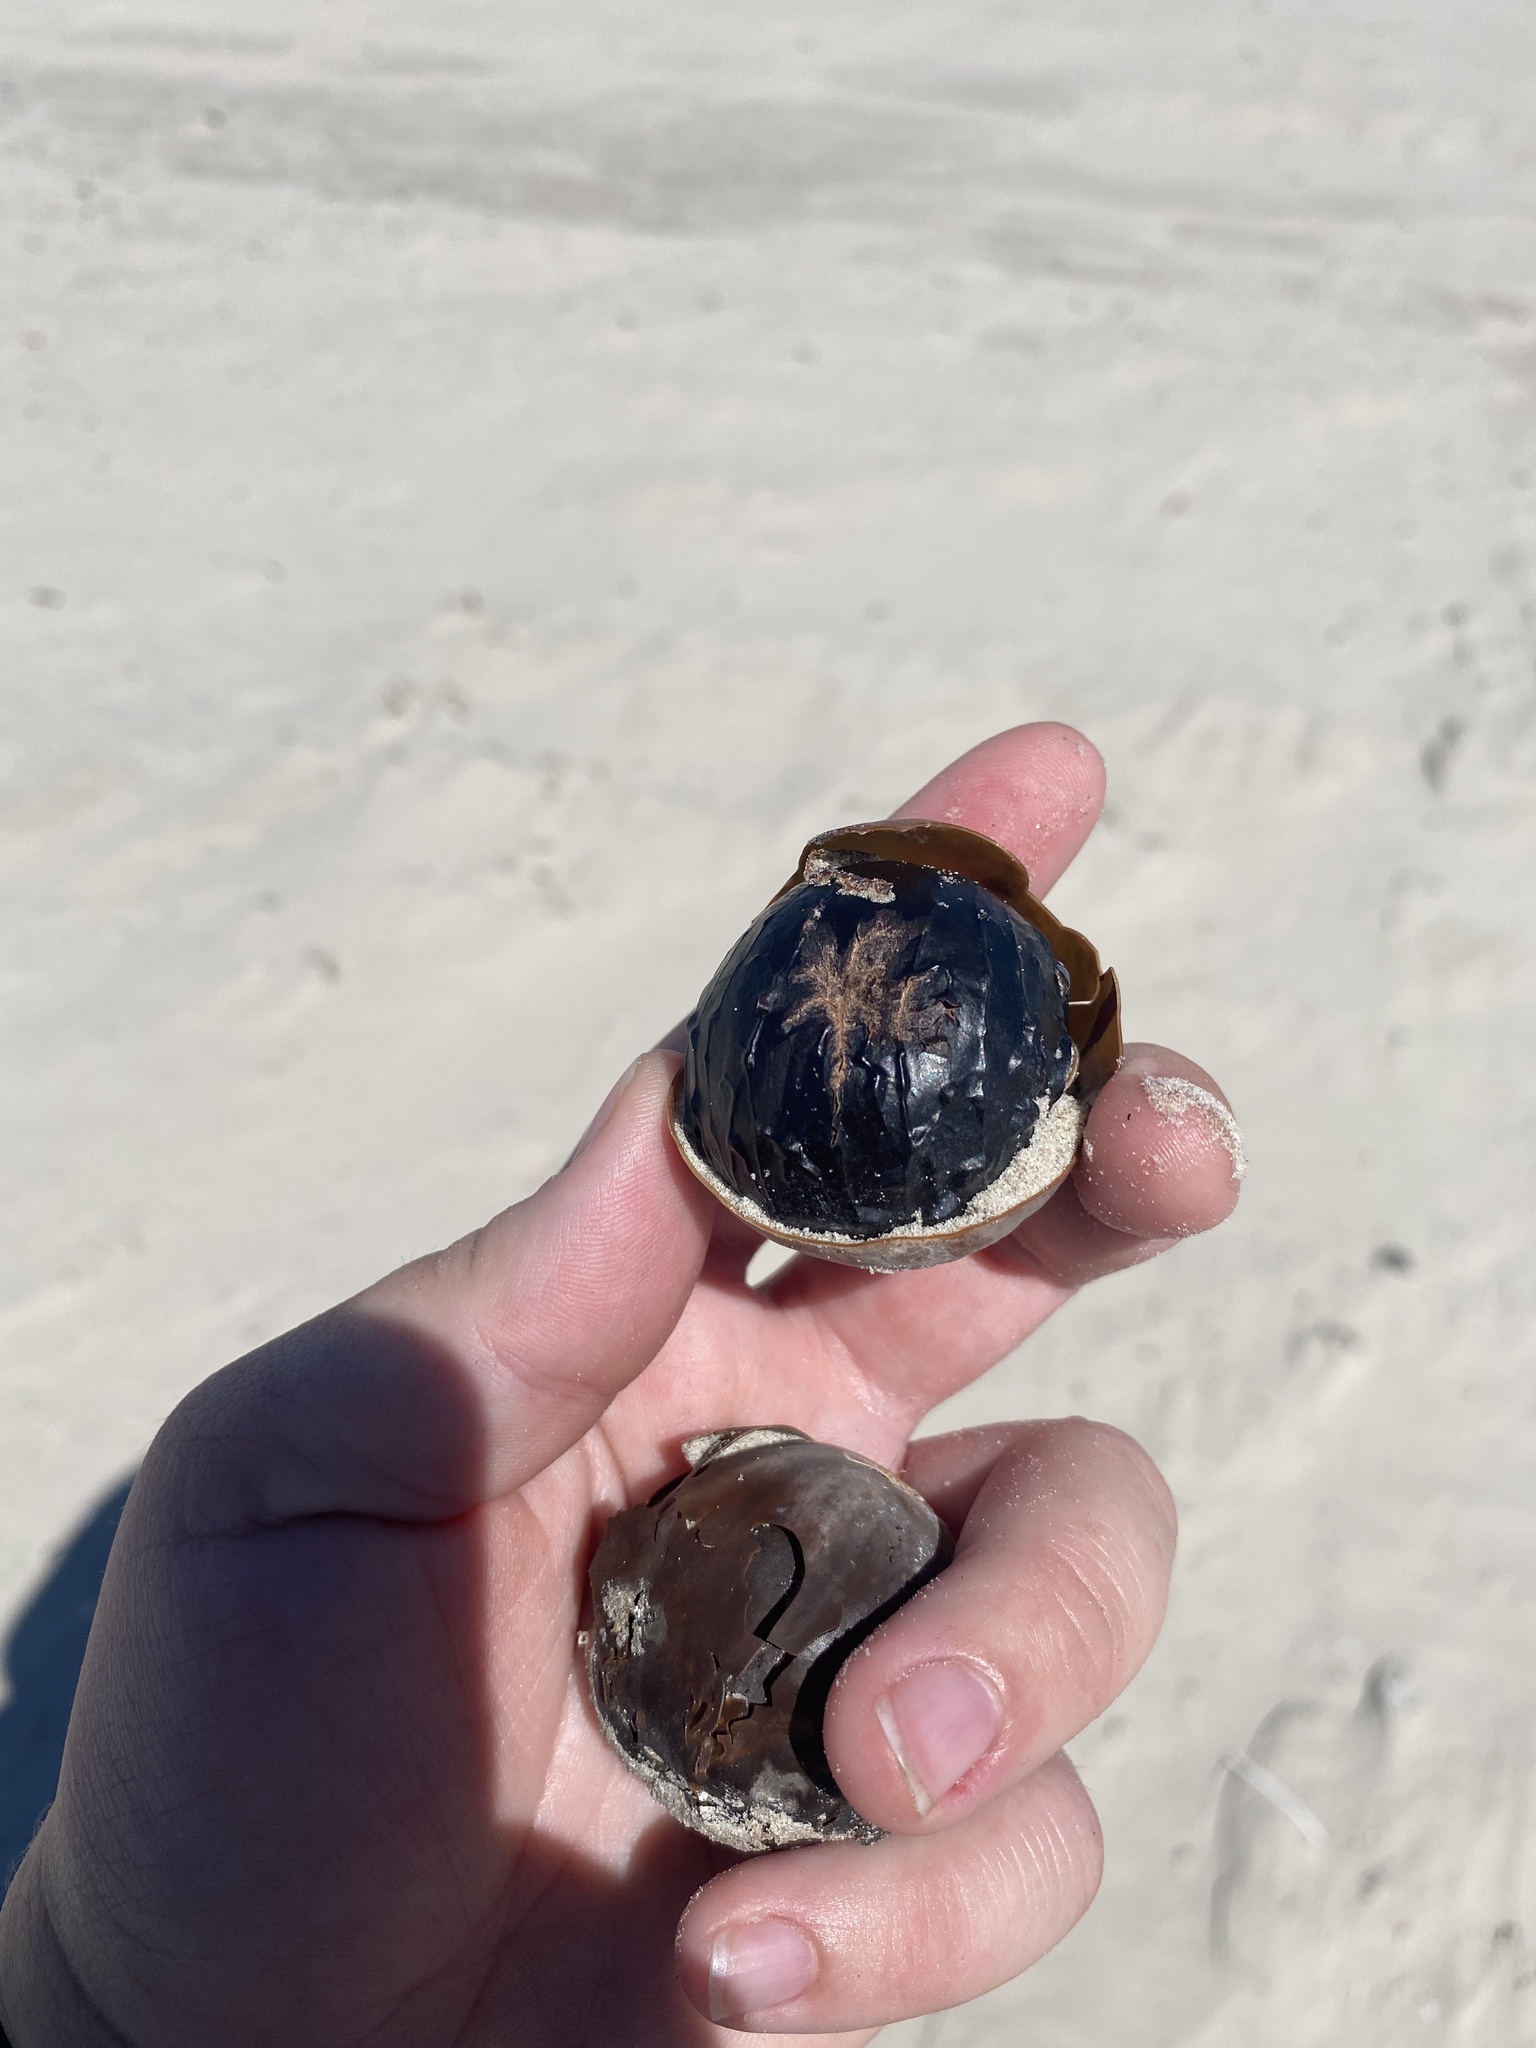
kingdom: Plantae
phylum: Tracheophyta
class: Liliopsida
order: Arecales
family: Arecaceae
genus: Manicaria
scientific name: Manicaria saccifera
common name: Sea coconut
